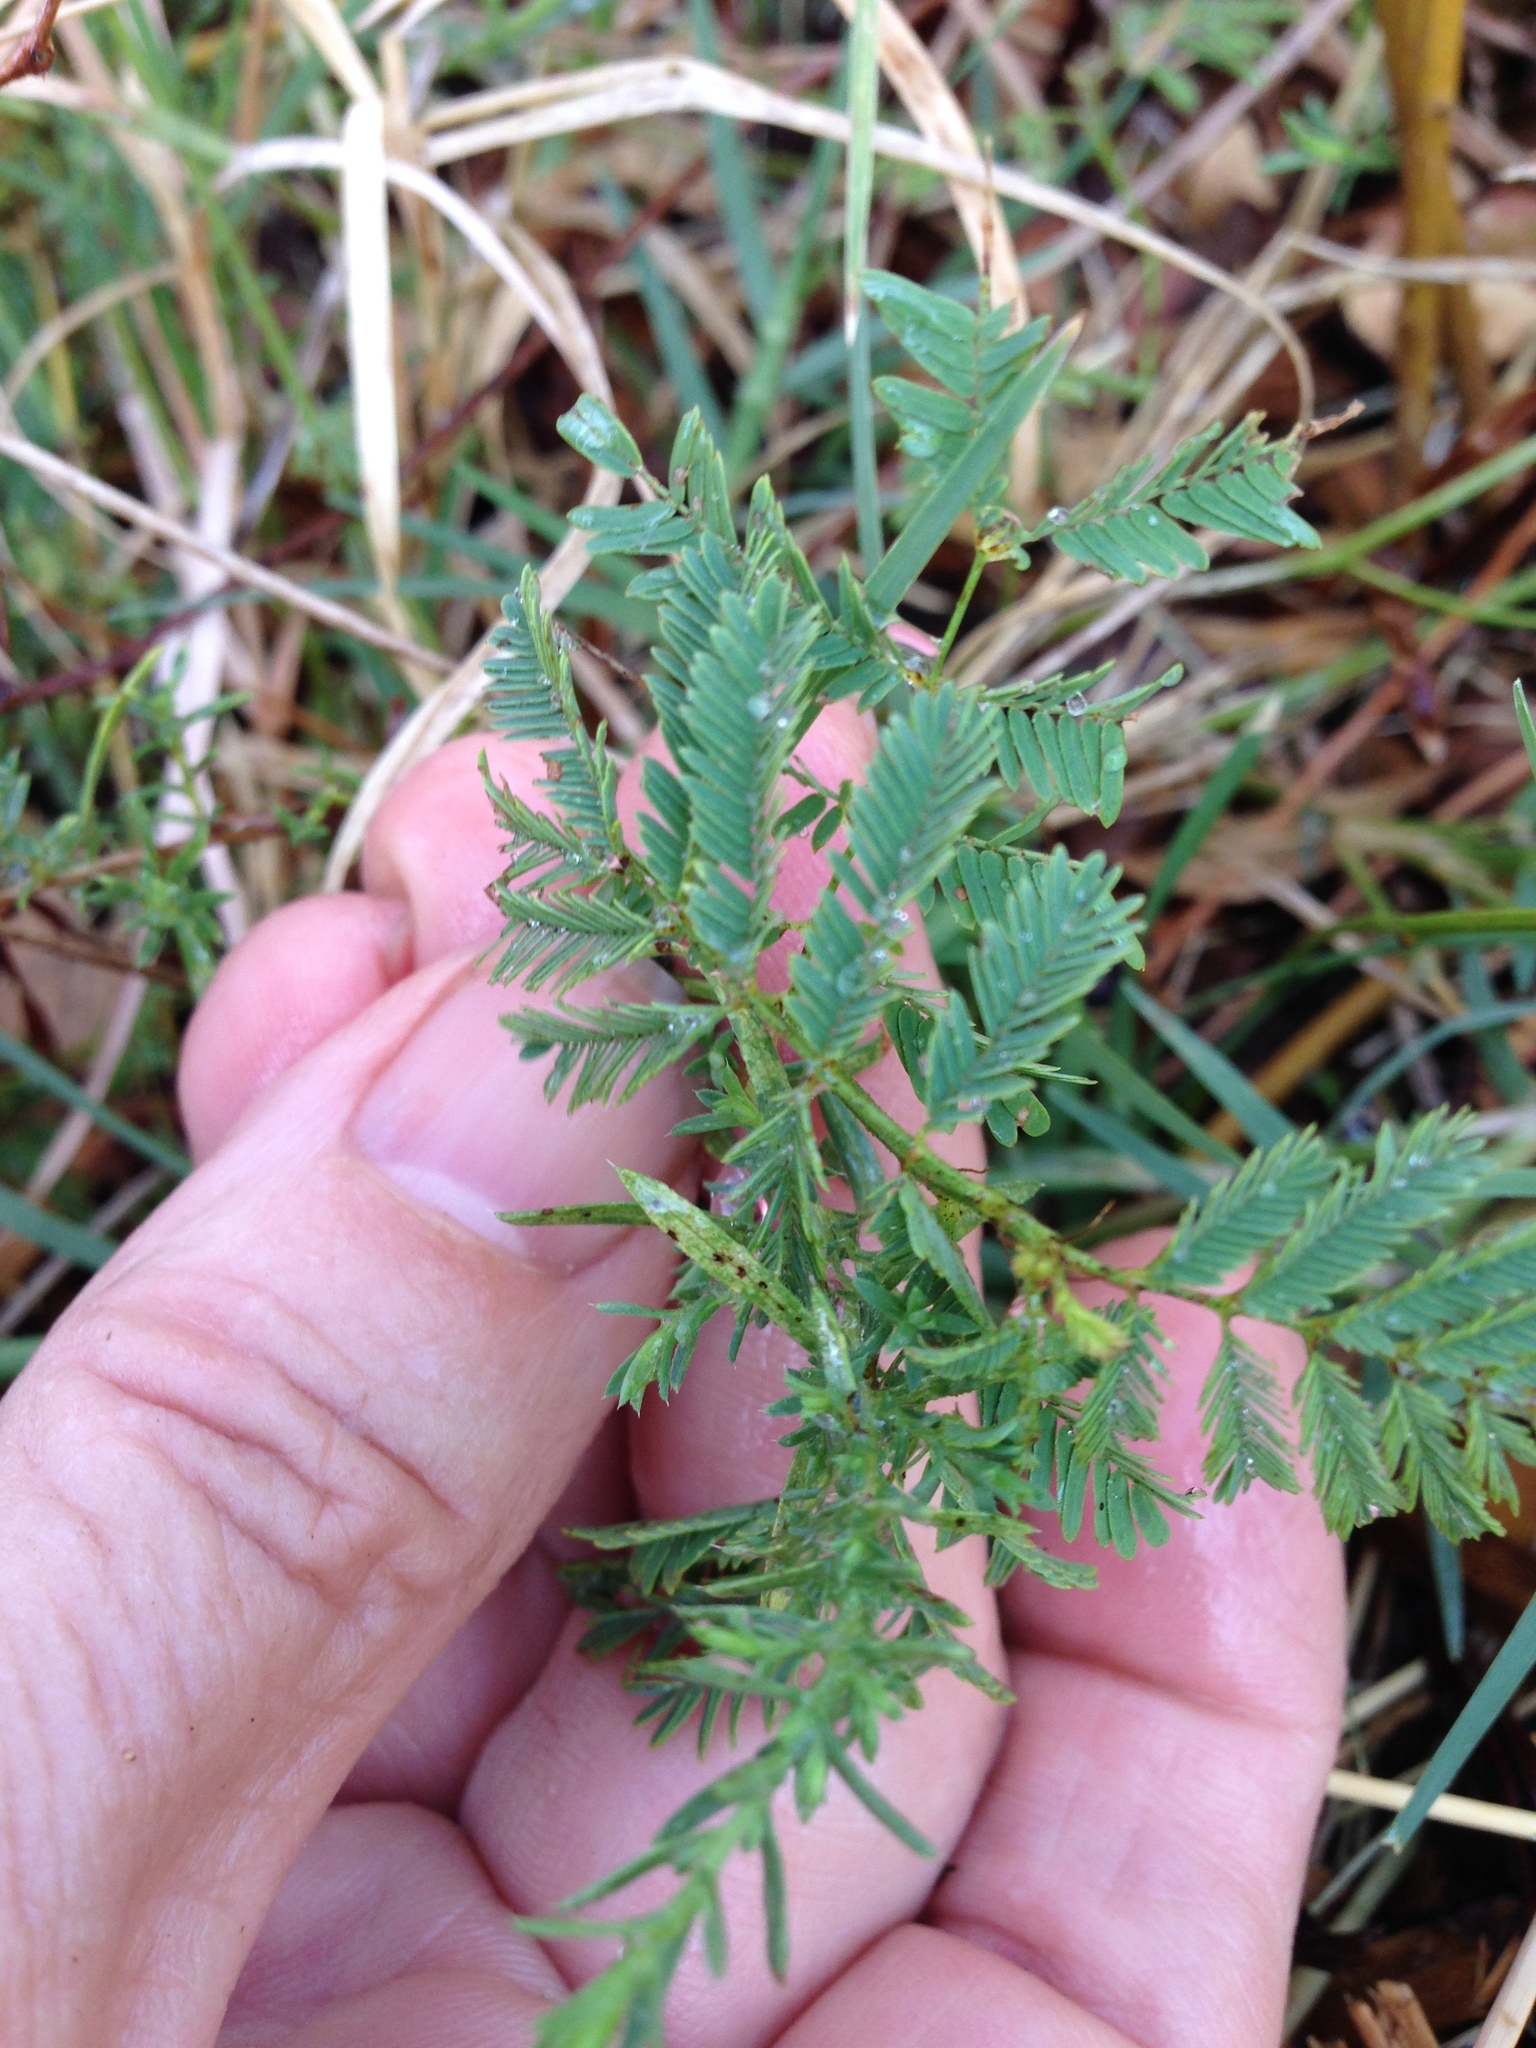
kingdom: Plantae
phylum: Tracheophyta
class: Magnoliopsida
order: Fabales
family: Fabaceae
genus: Desmanthus
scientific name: Desmanthus leptolobus
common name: Prairie-mimosa
